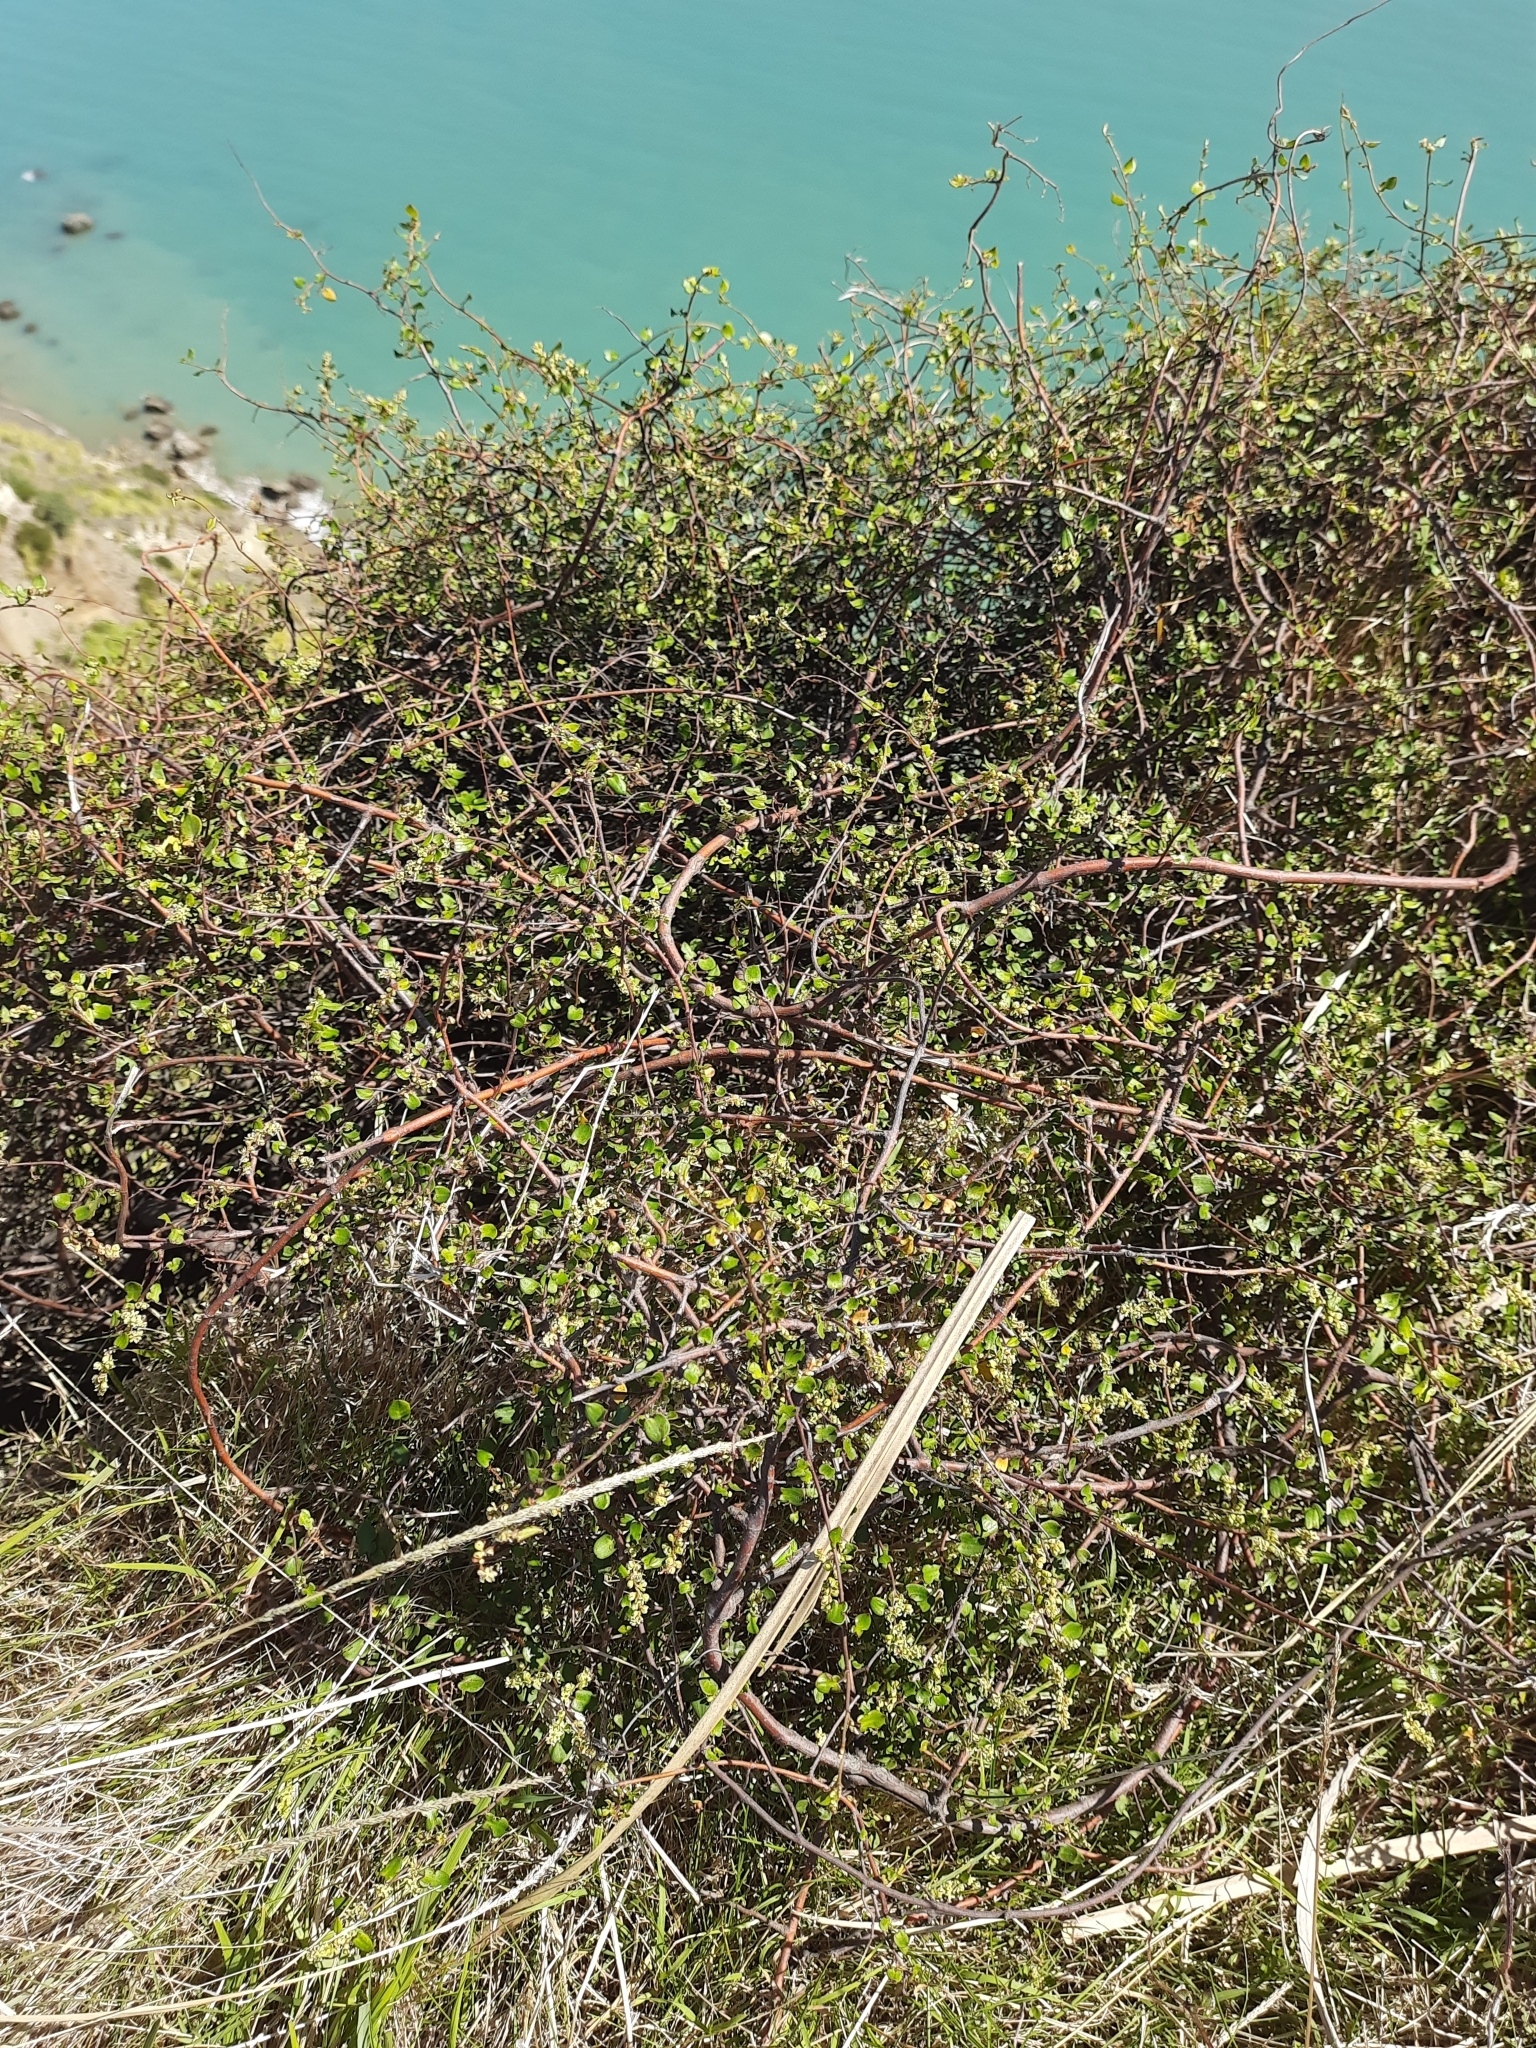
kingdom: Plantae
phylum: Tracheophyta
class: Magnoliopsida
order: Caryophyllales
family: Polygonaceae
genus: Muehlenbeckia
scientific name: Muehlenbeckia complexa
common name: Wireplant
